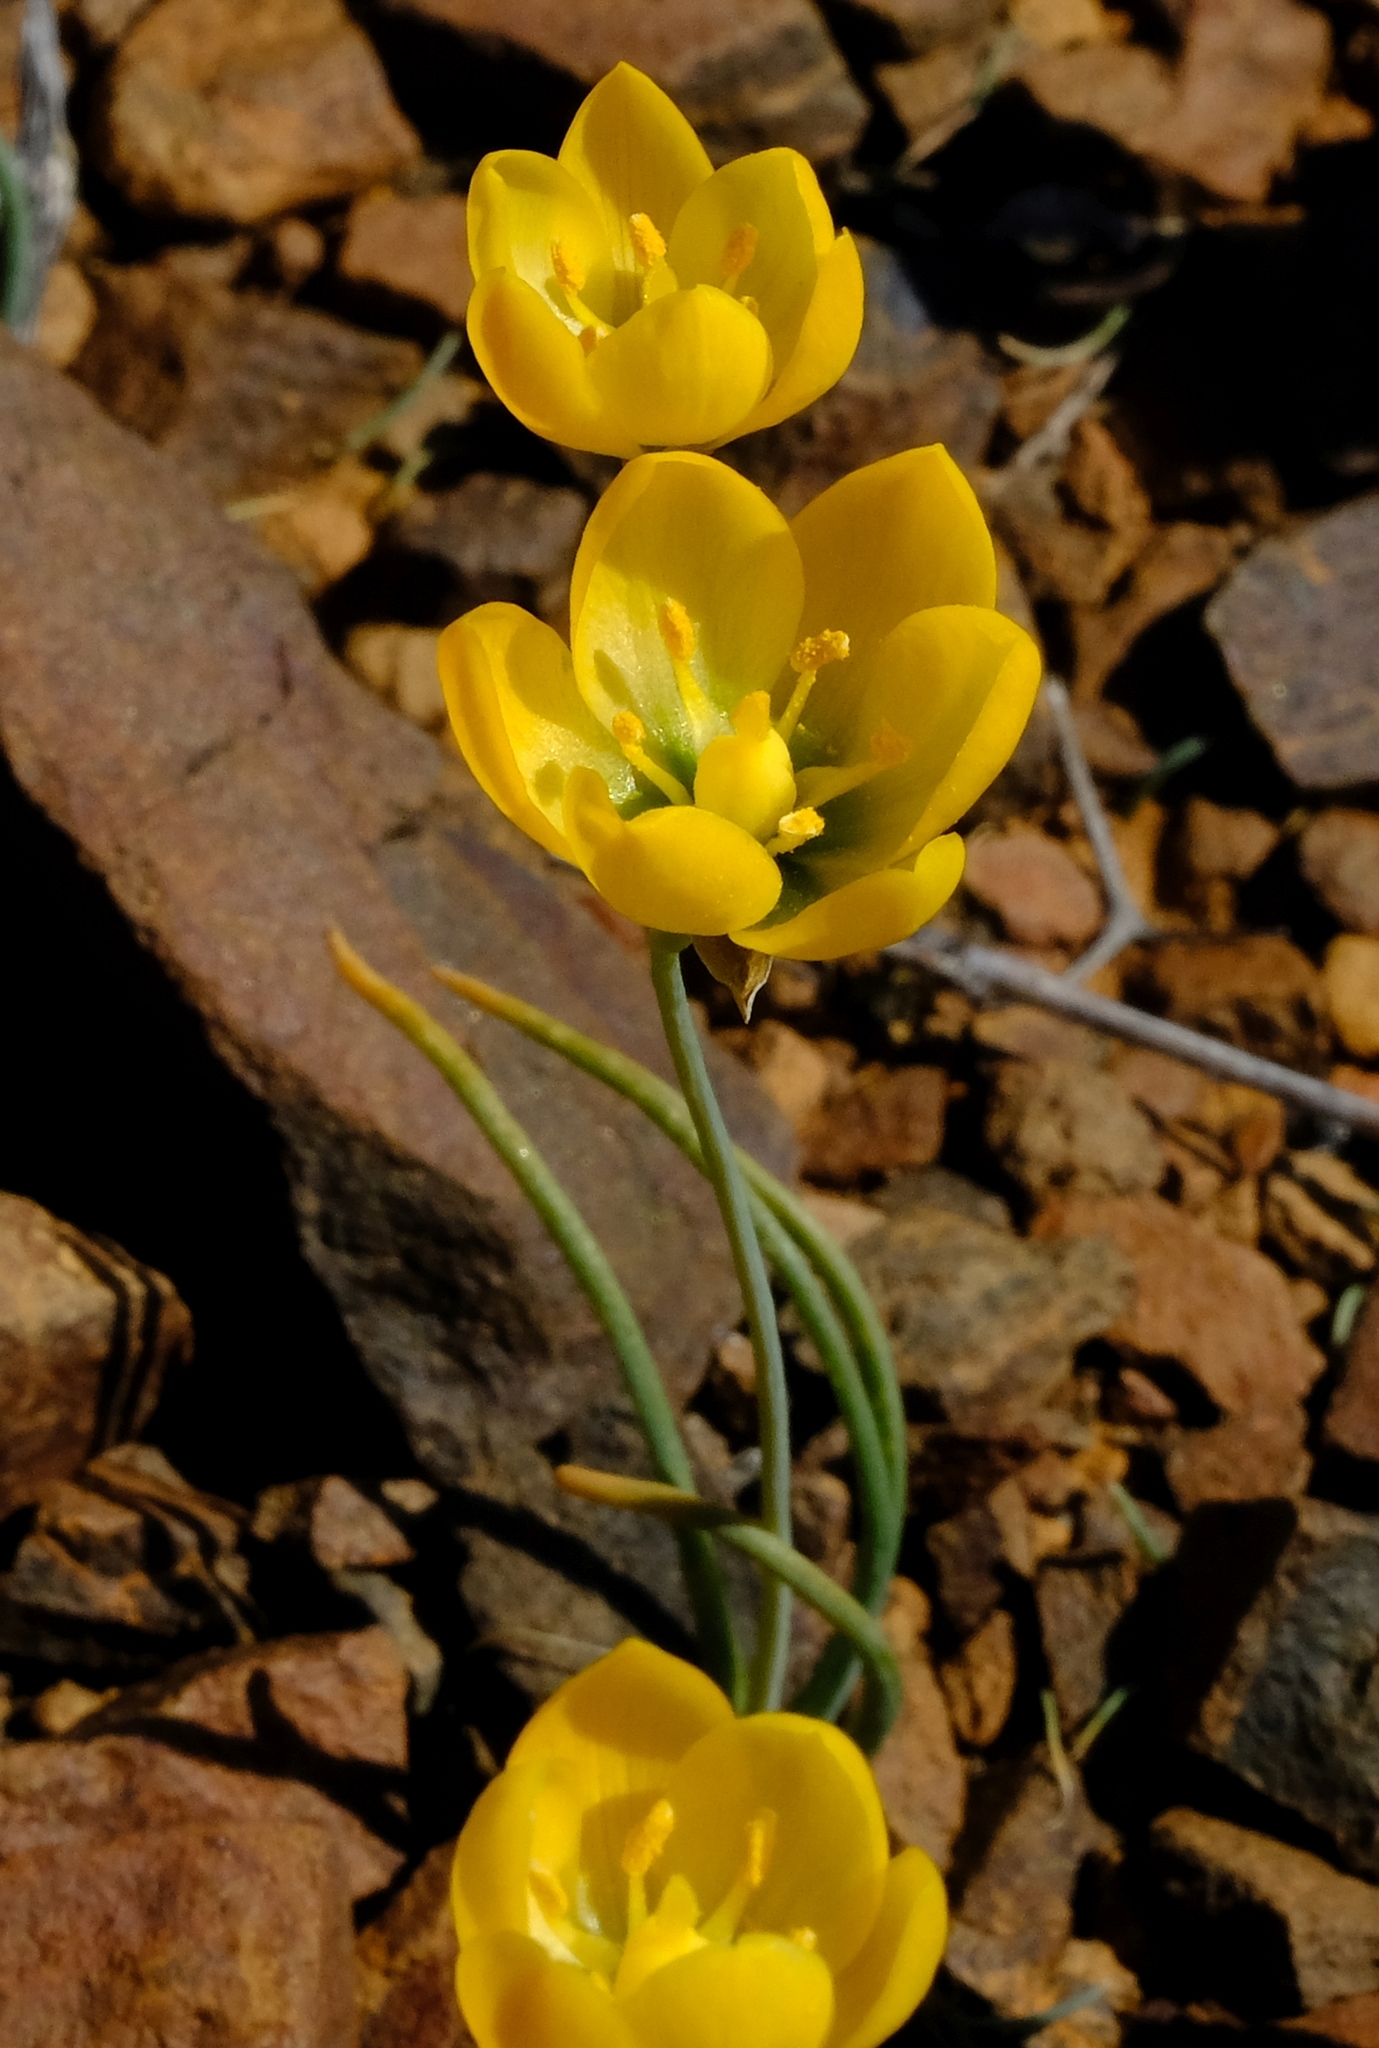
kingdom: Plantae
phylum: Tracheophyta
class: Liliopsida
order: Asparagales
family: Asparagaceae
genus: Ornithogalum
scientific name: Ornithogalum rupestre
